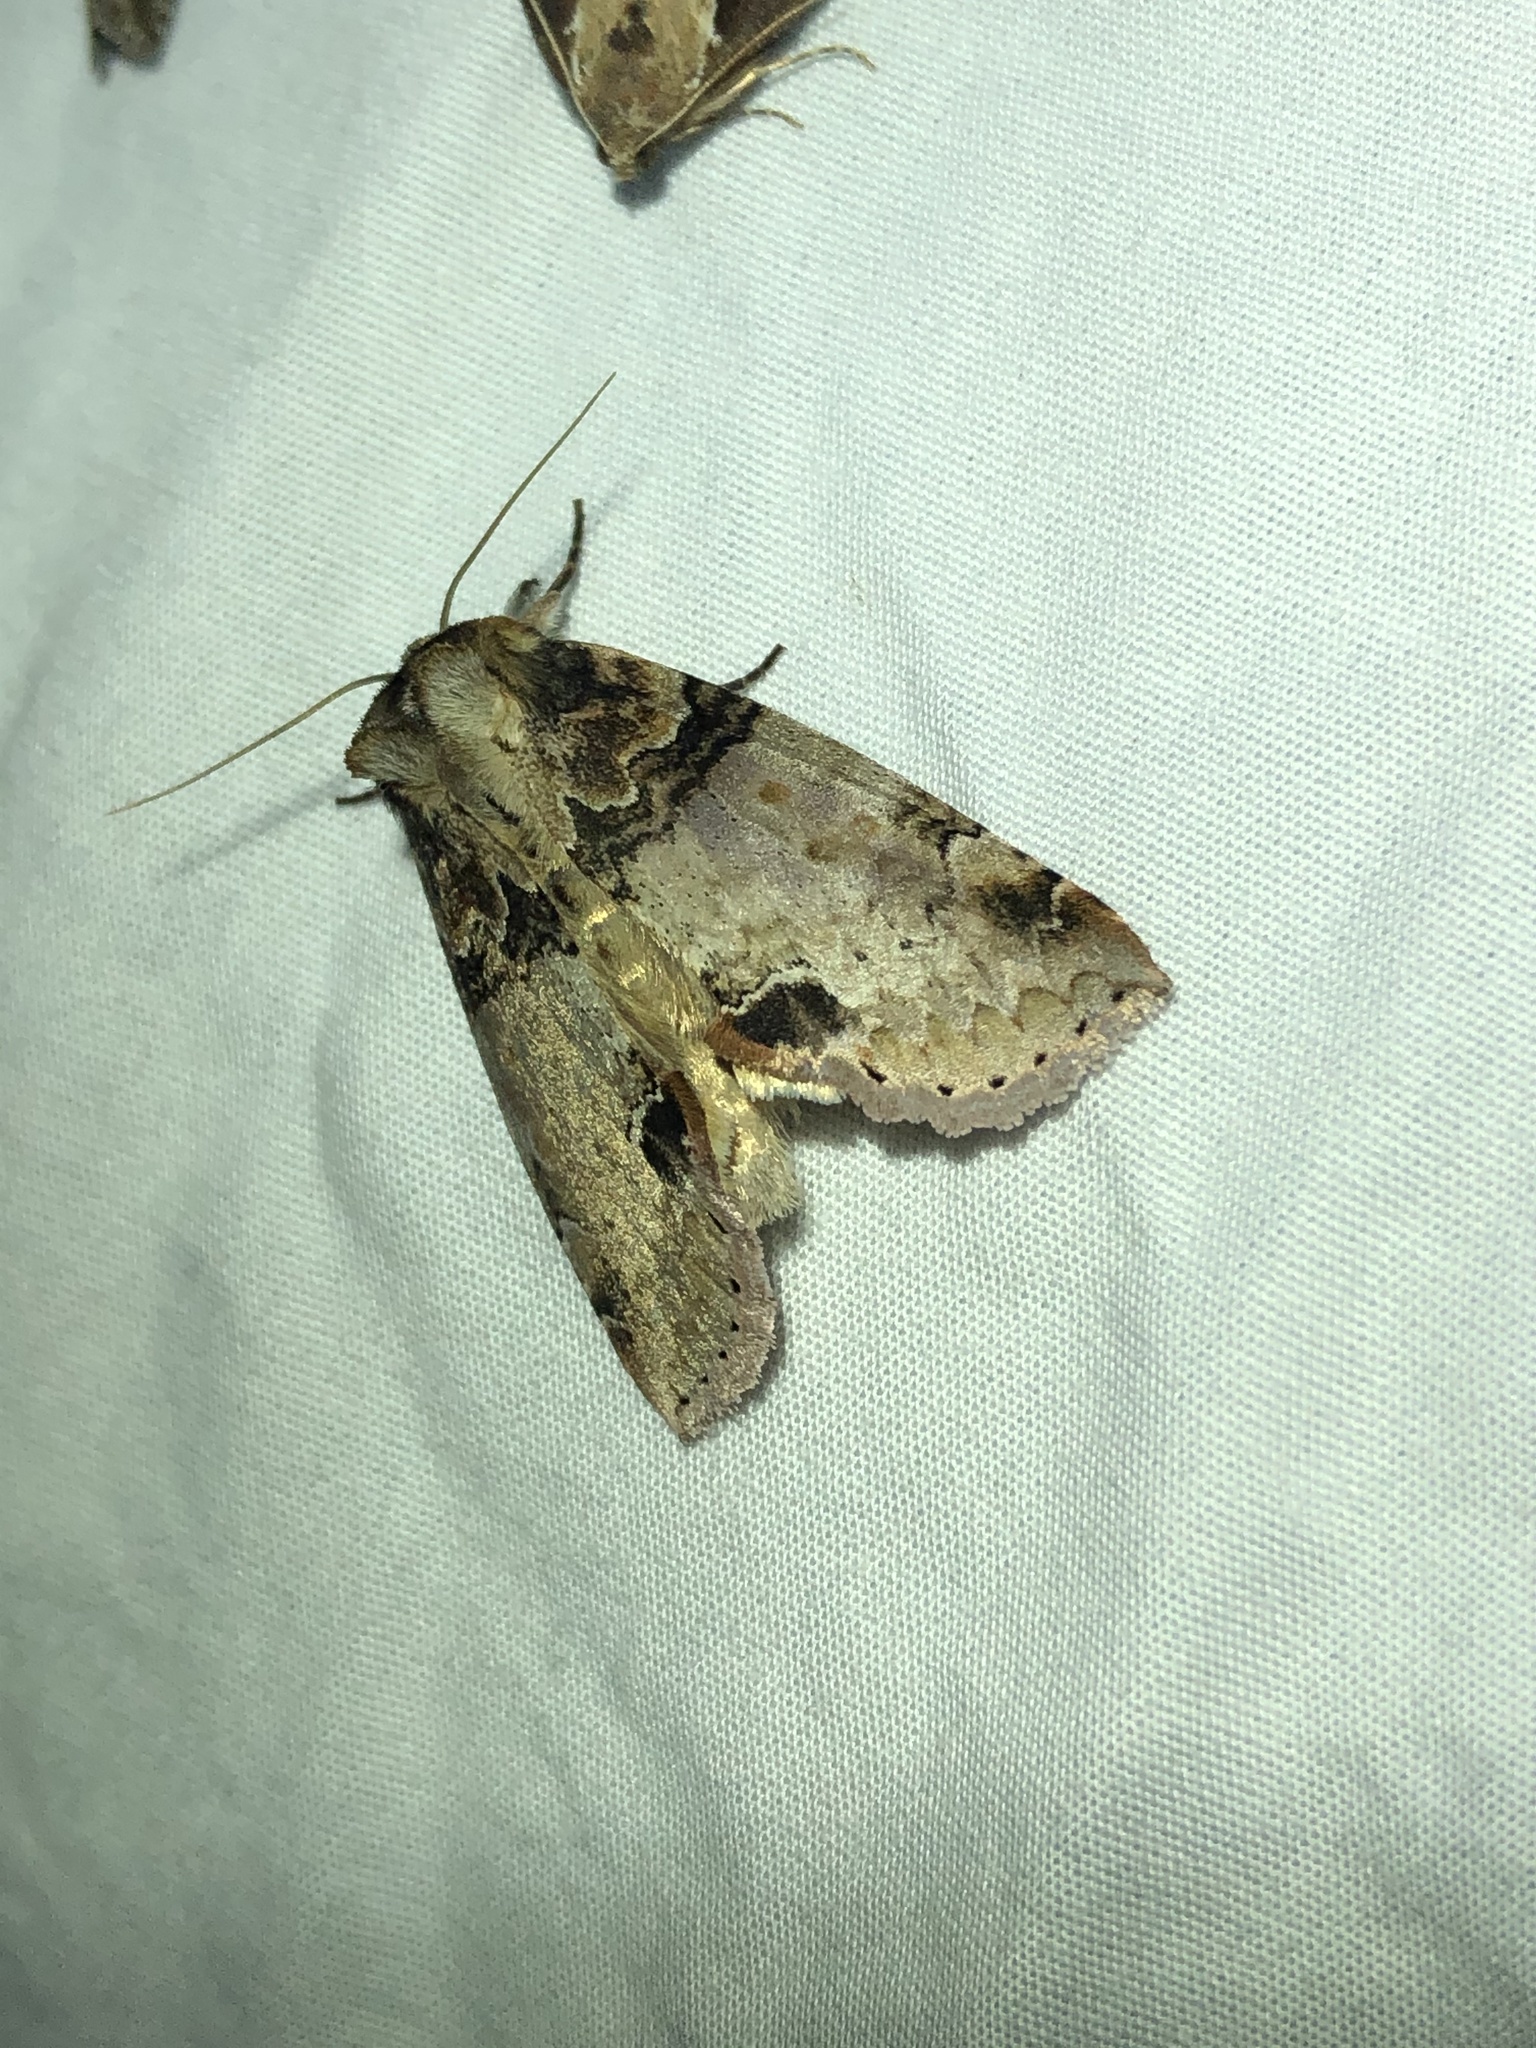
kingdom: Animalia
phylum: Arthropoda
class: Insecta
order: Lepidoptera
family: Drepanidae
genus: Pseudothyatira
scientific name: Pseudothyatira cymatophoroides
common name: Tufted thyatirid moth
